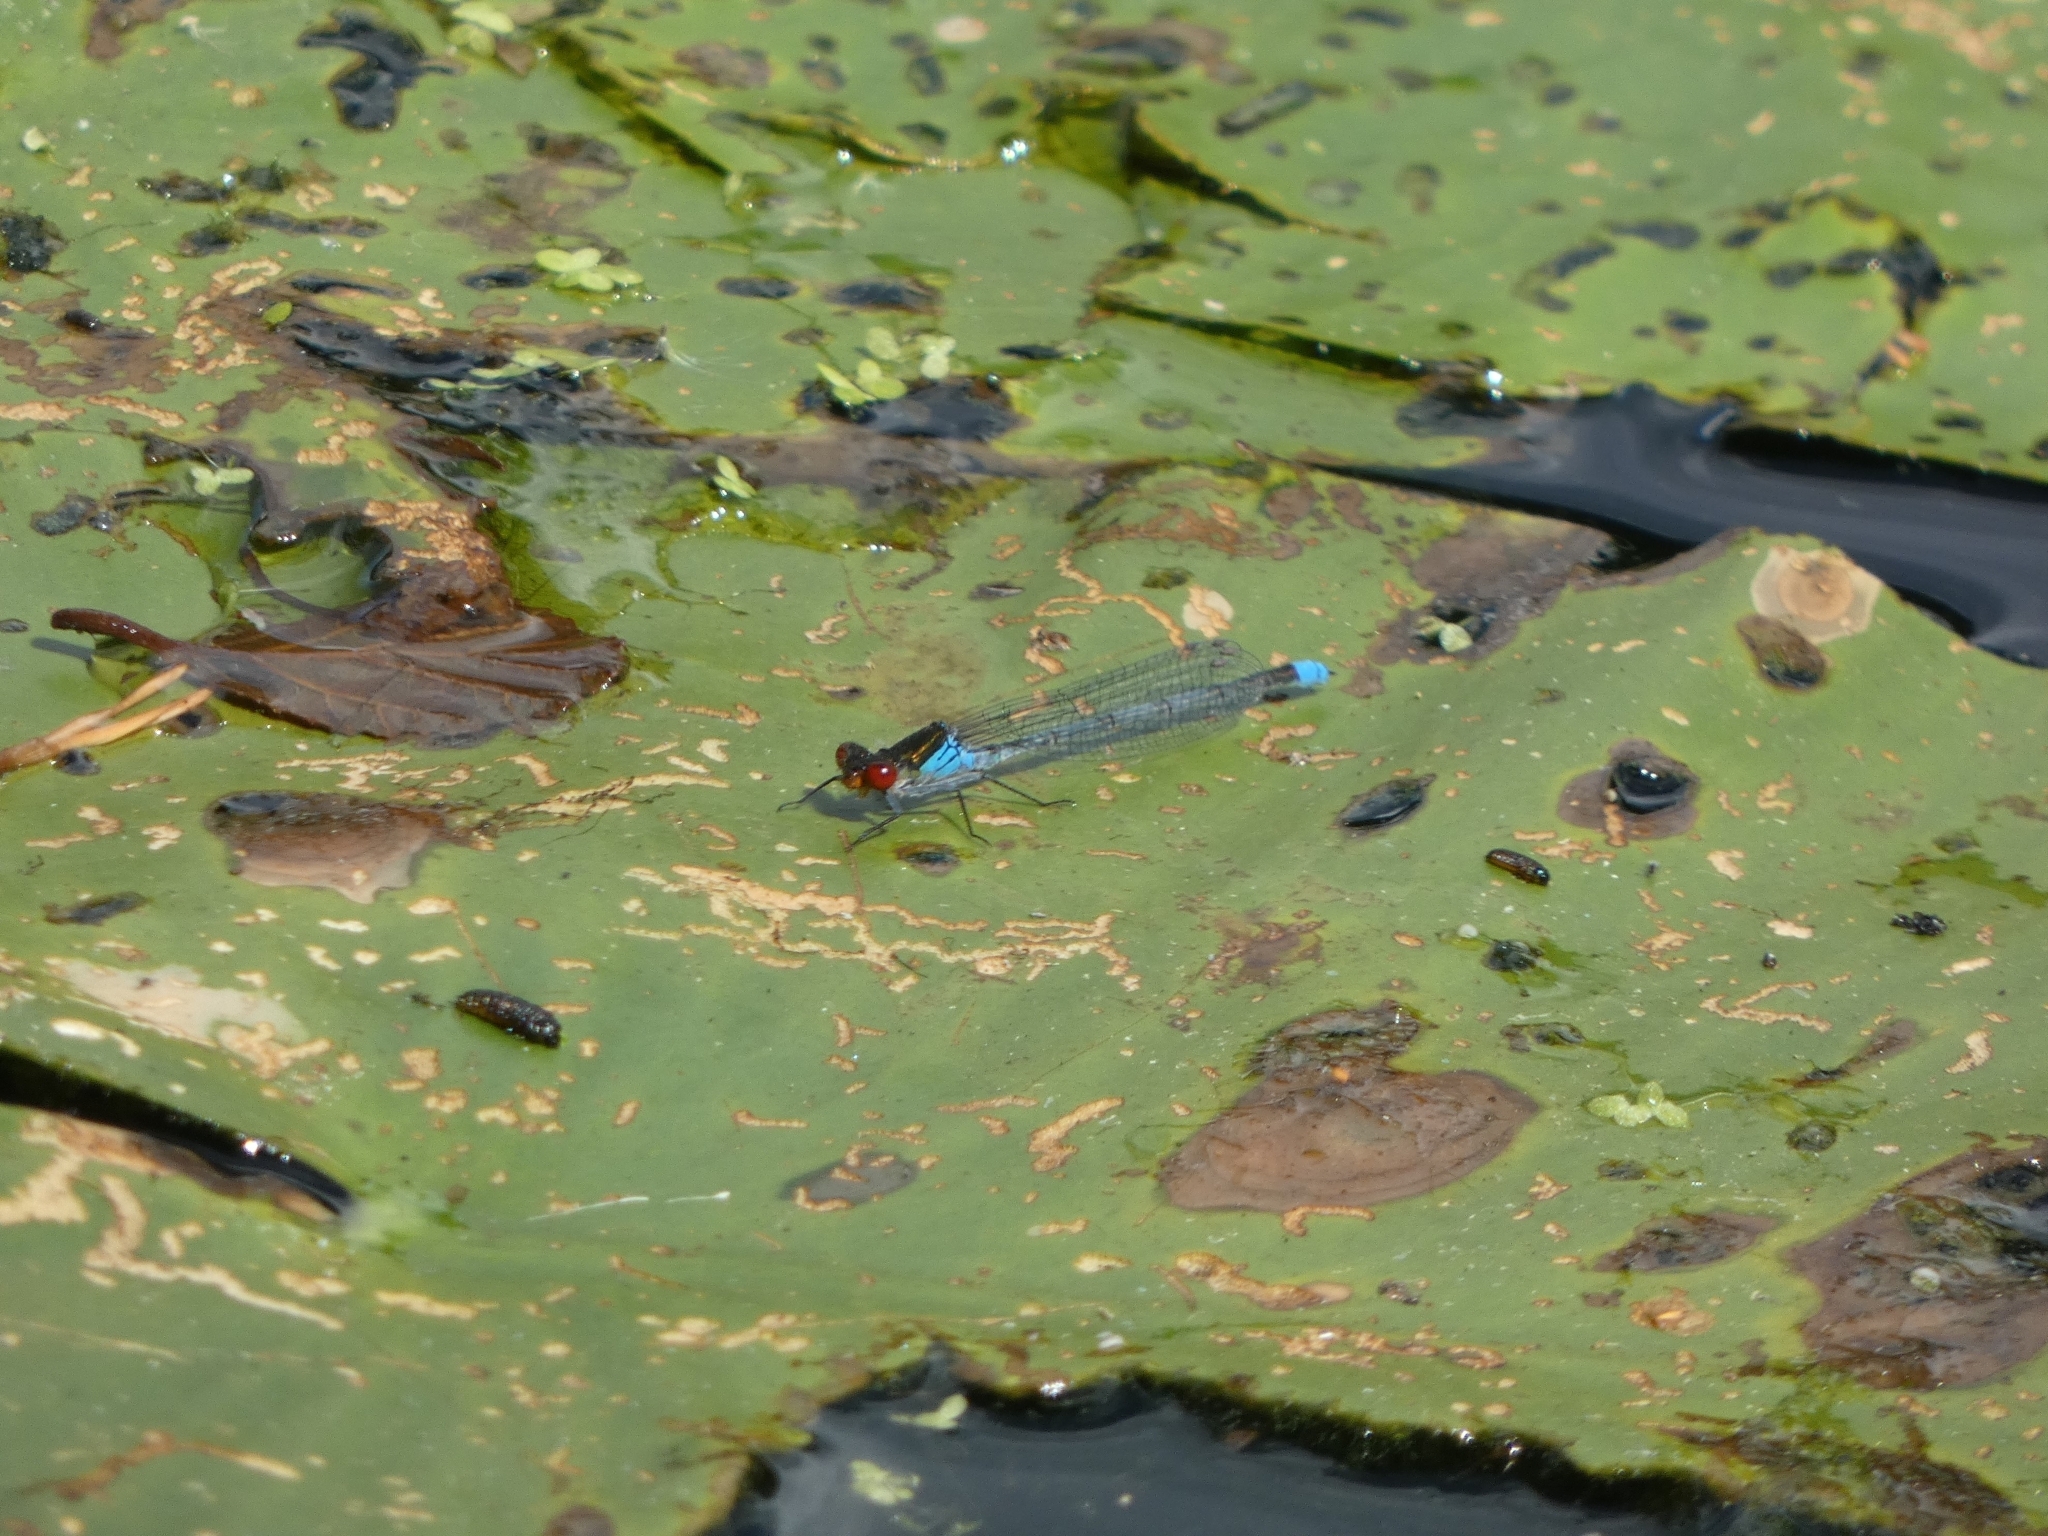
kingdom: Animalia
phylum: Arthropoda
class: Insecta
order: Odonata
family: Coenagrionidae
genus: Erythromma
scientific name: Erythromma najas
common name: Red-eyed damselfly
